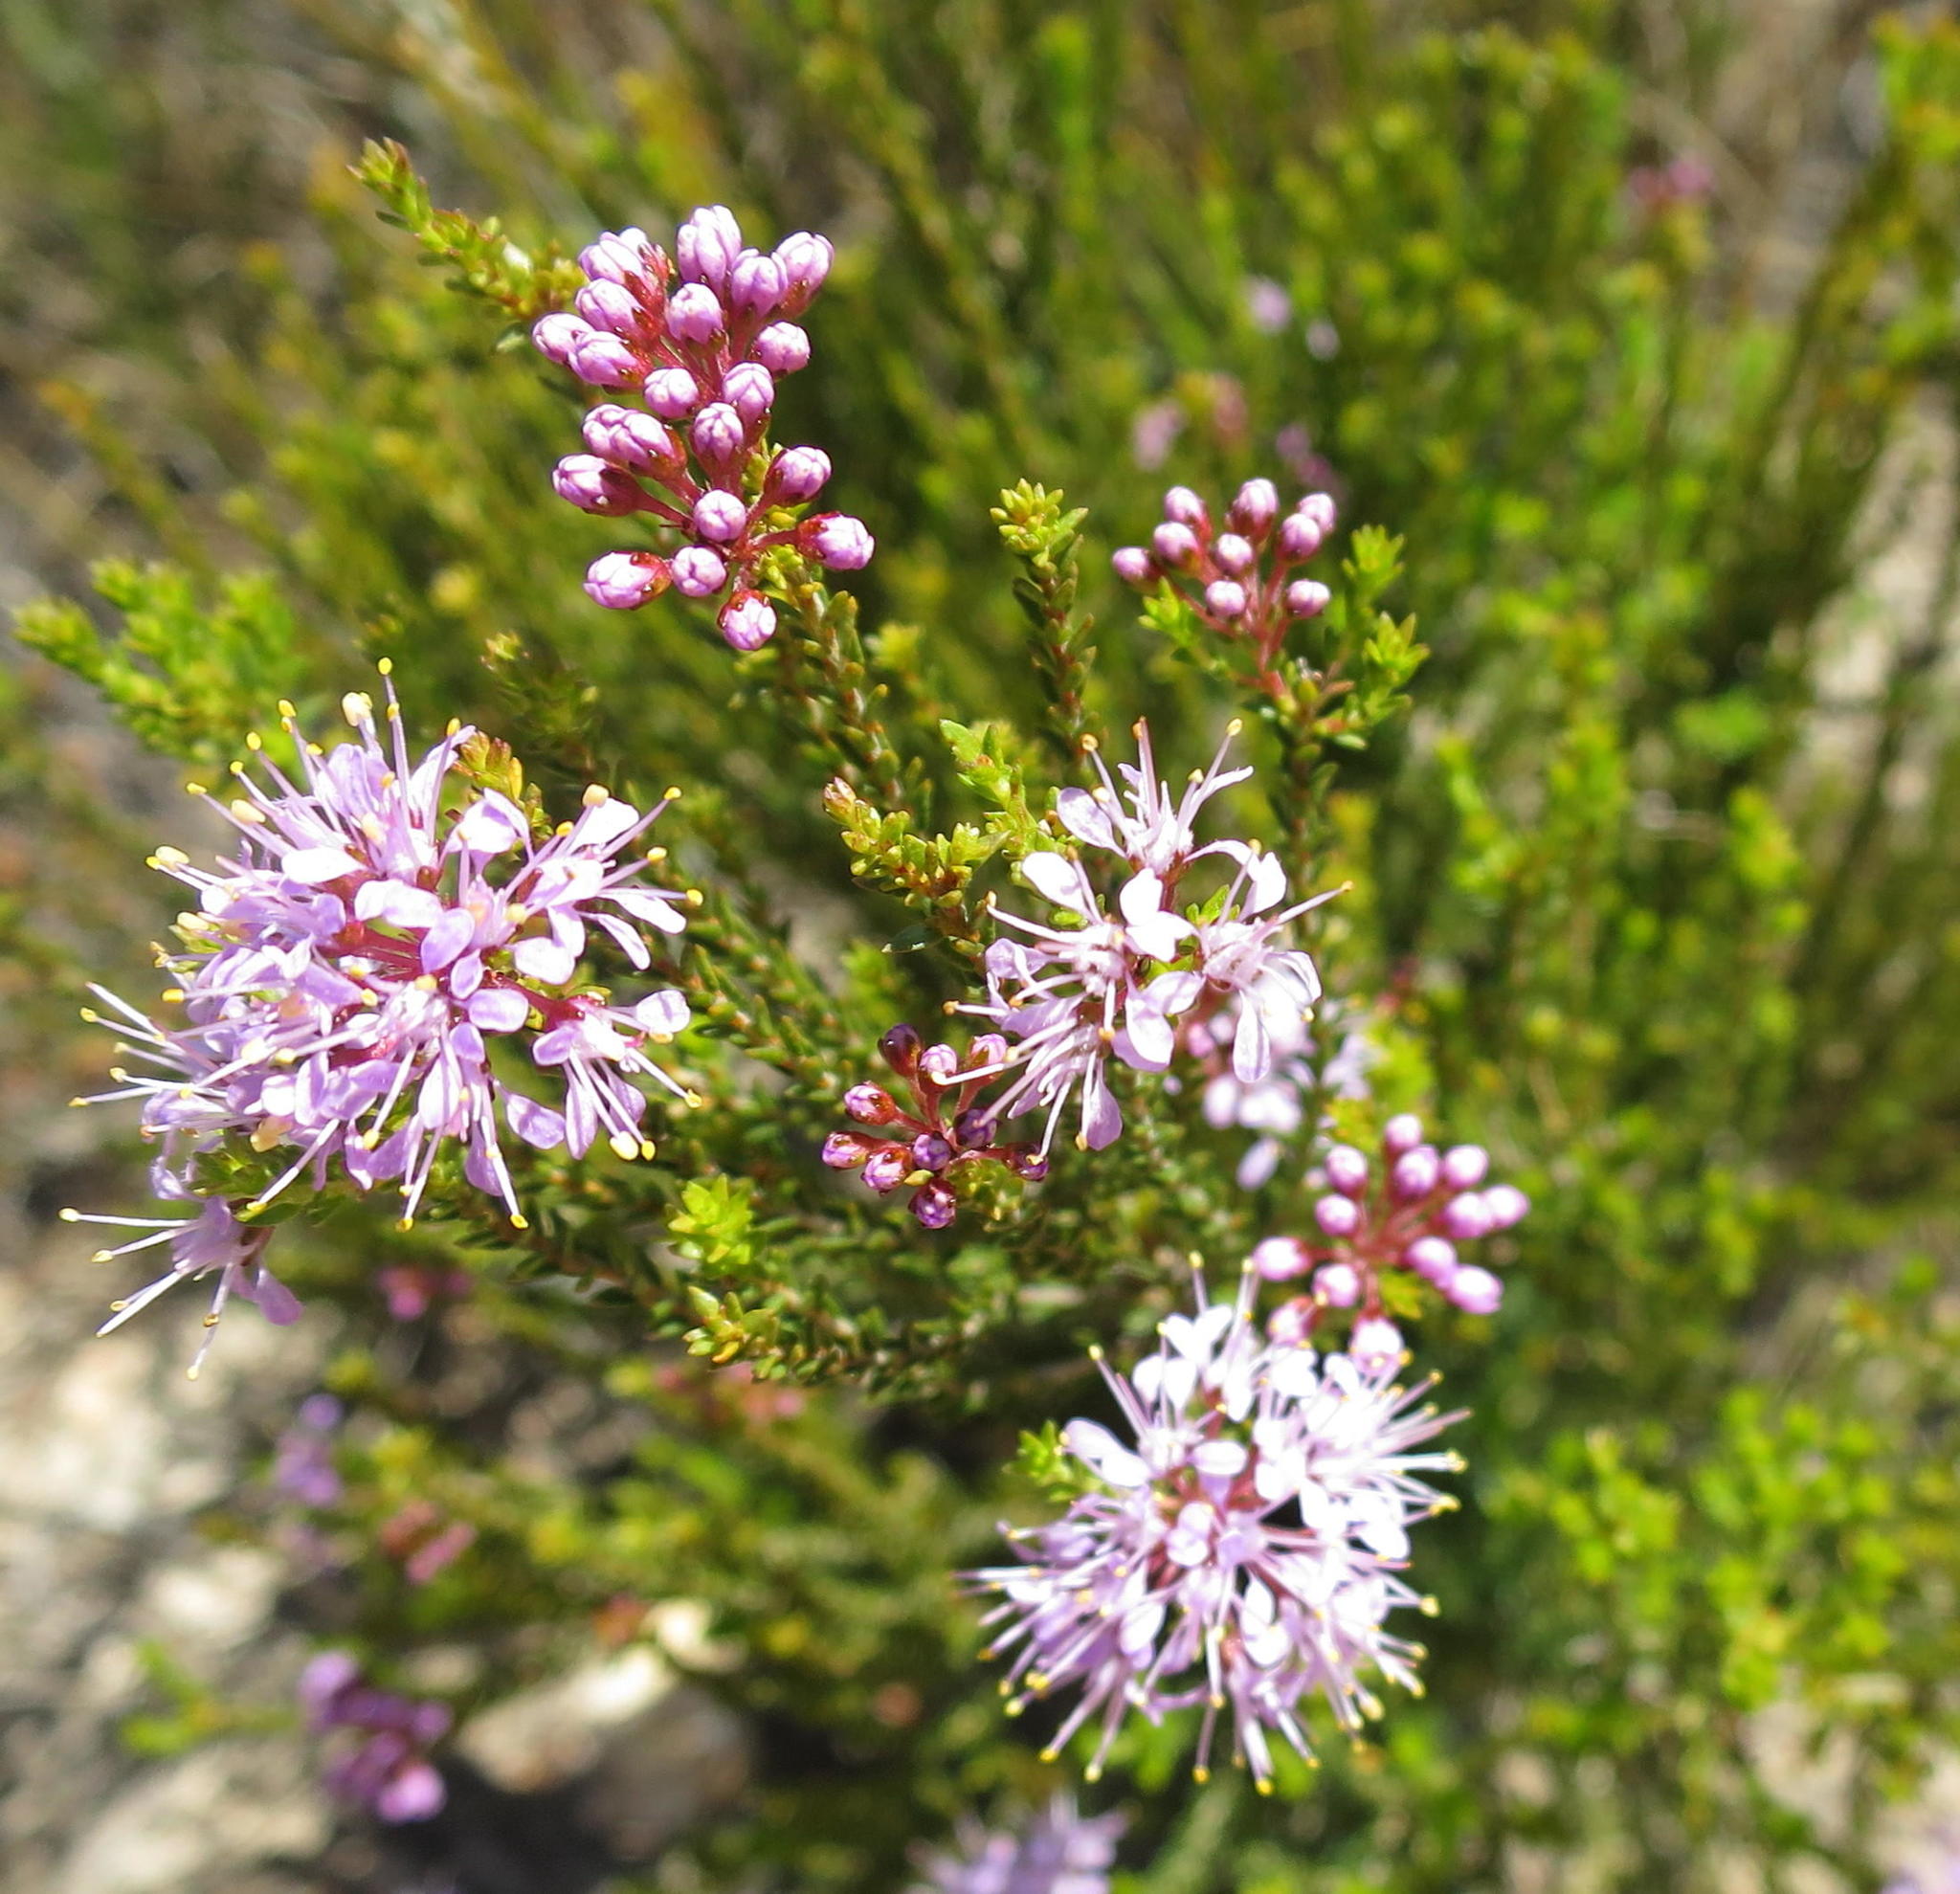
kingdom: Plantae
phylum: Tracheophyta
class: Magnoliopsida
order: Sapindales
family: Rutaceae
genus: Agathosma
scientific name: Agathosma capensis
